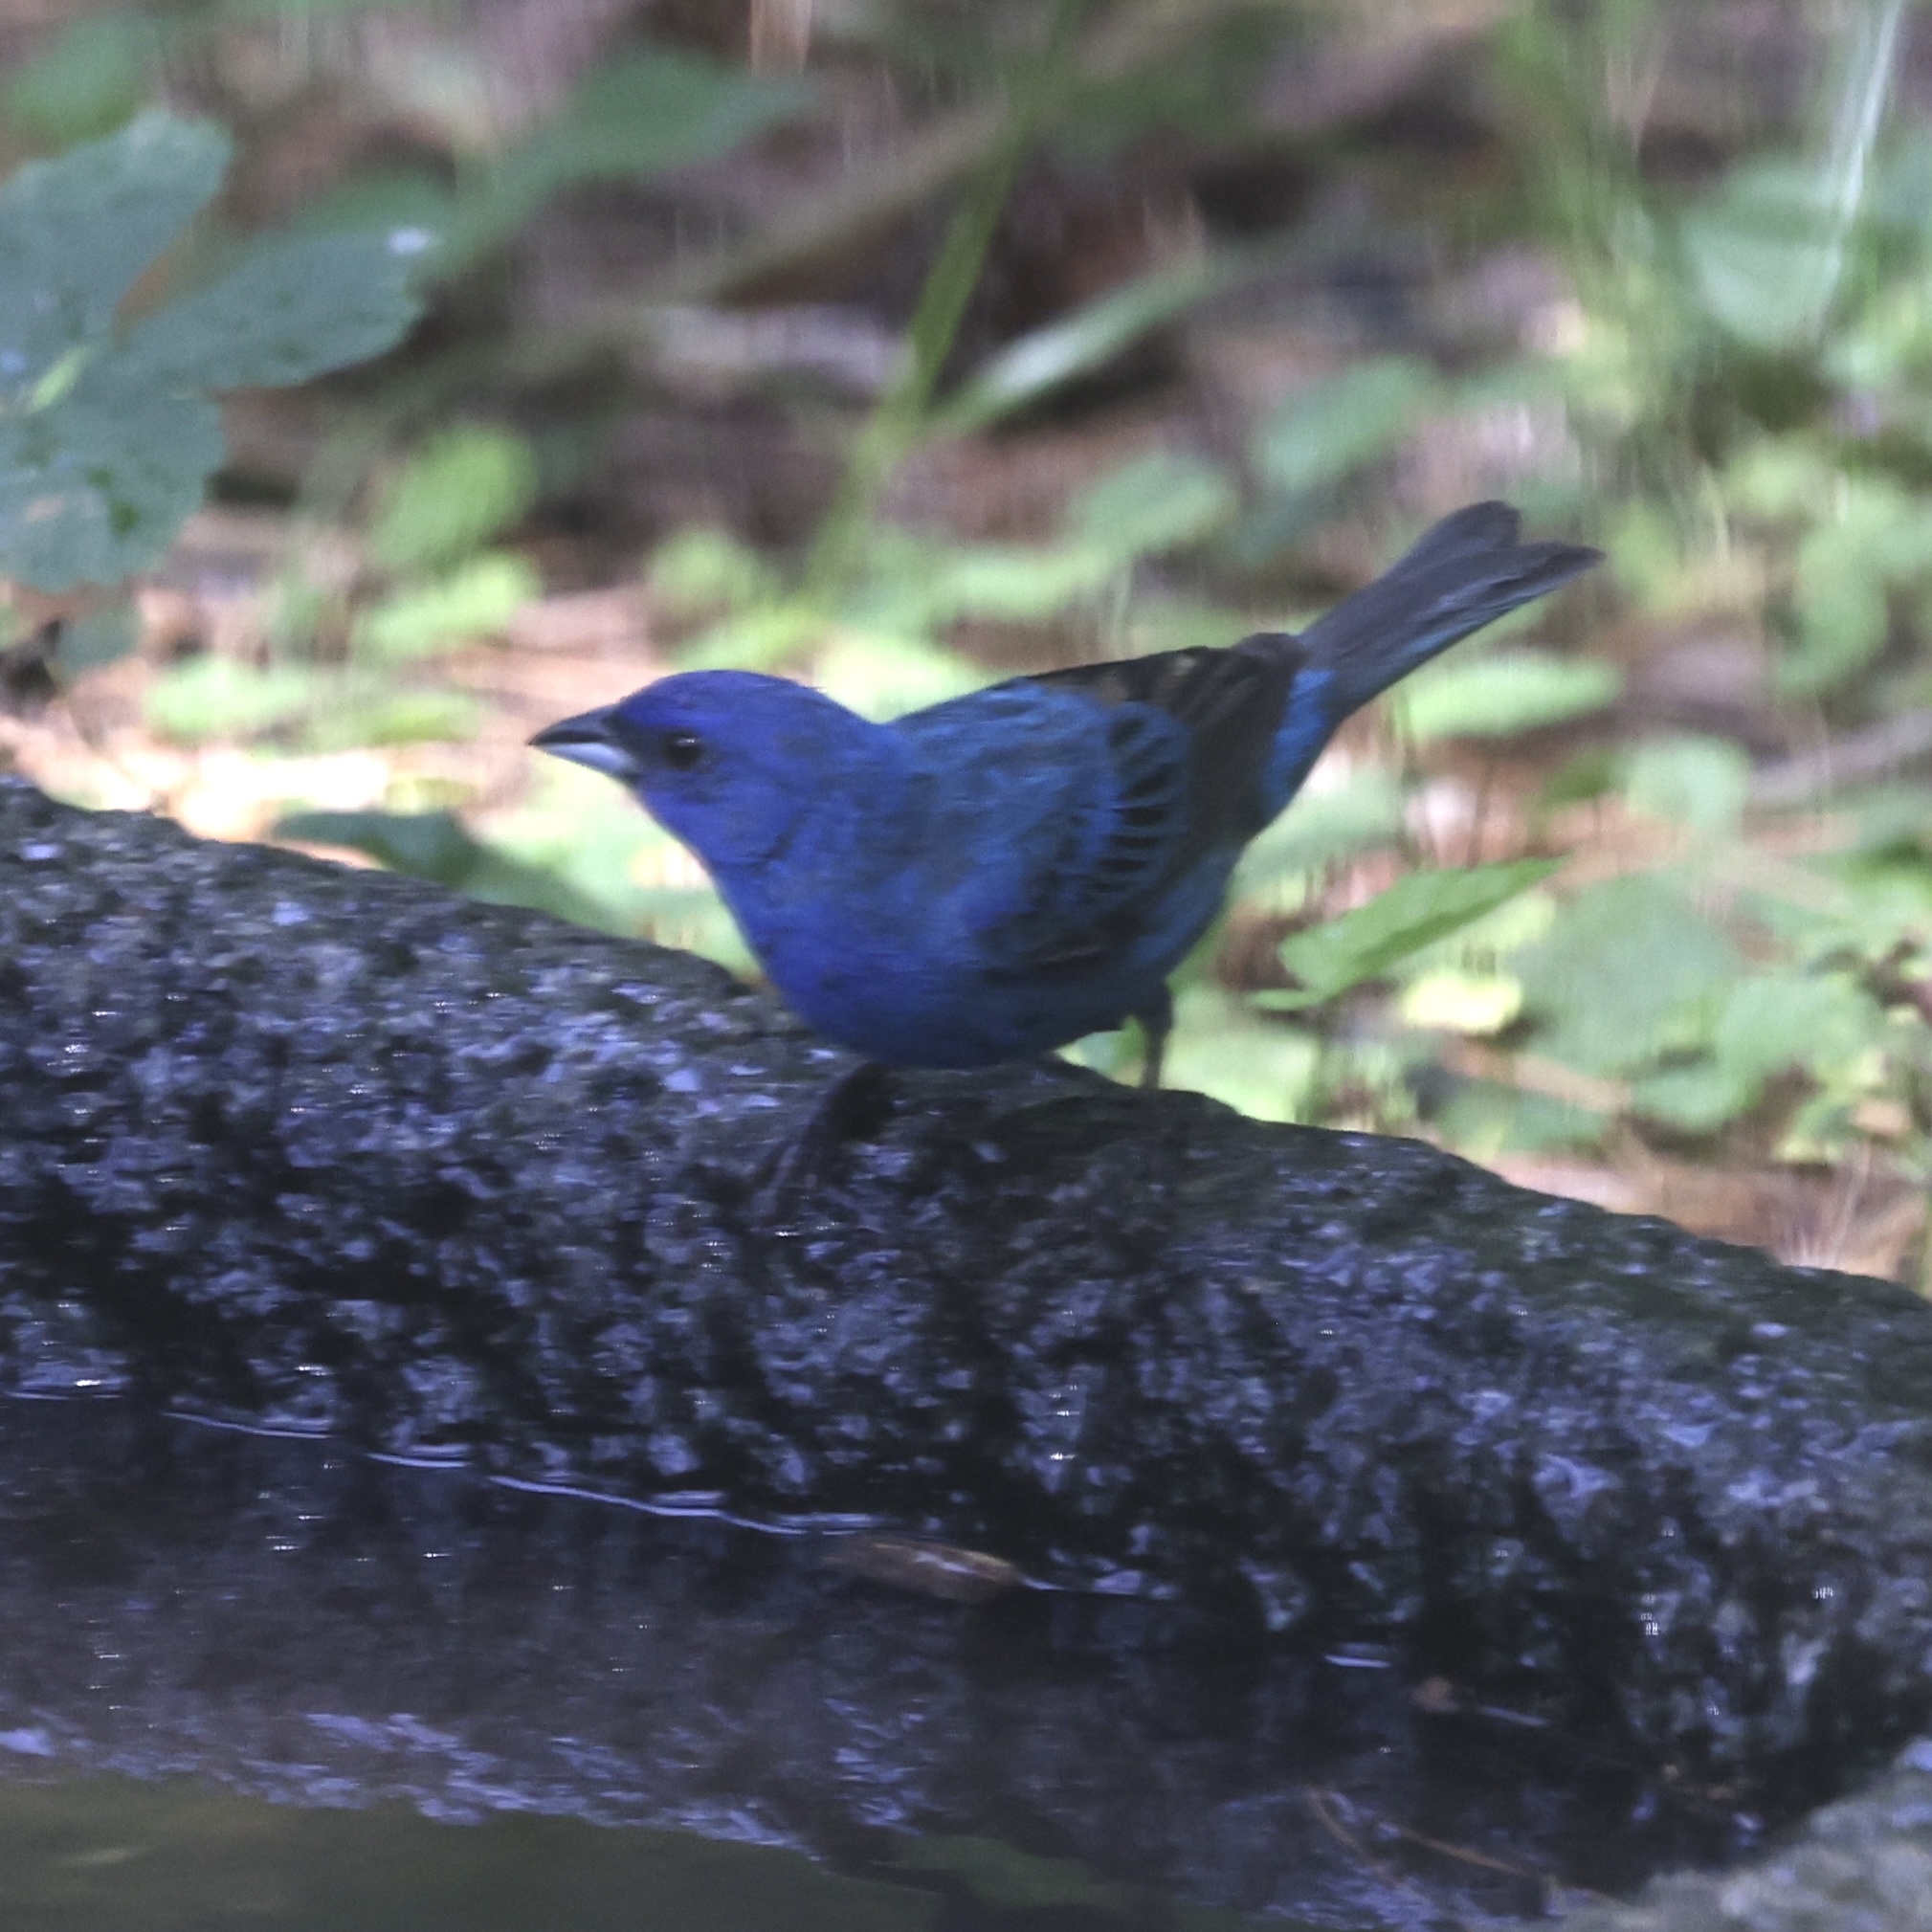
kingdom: Animalia
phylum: Chordata
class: Aves
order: Passeriformes
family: Cardinalidae
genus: Passerina
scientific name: Passerina cyanea
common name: Indigo bunting
